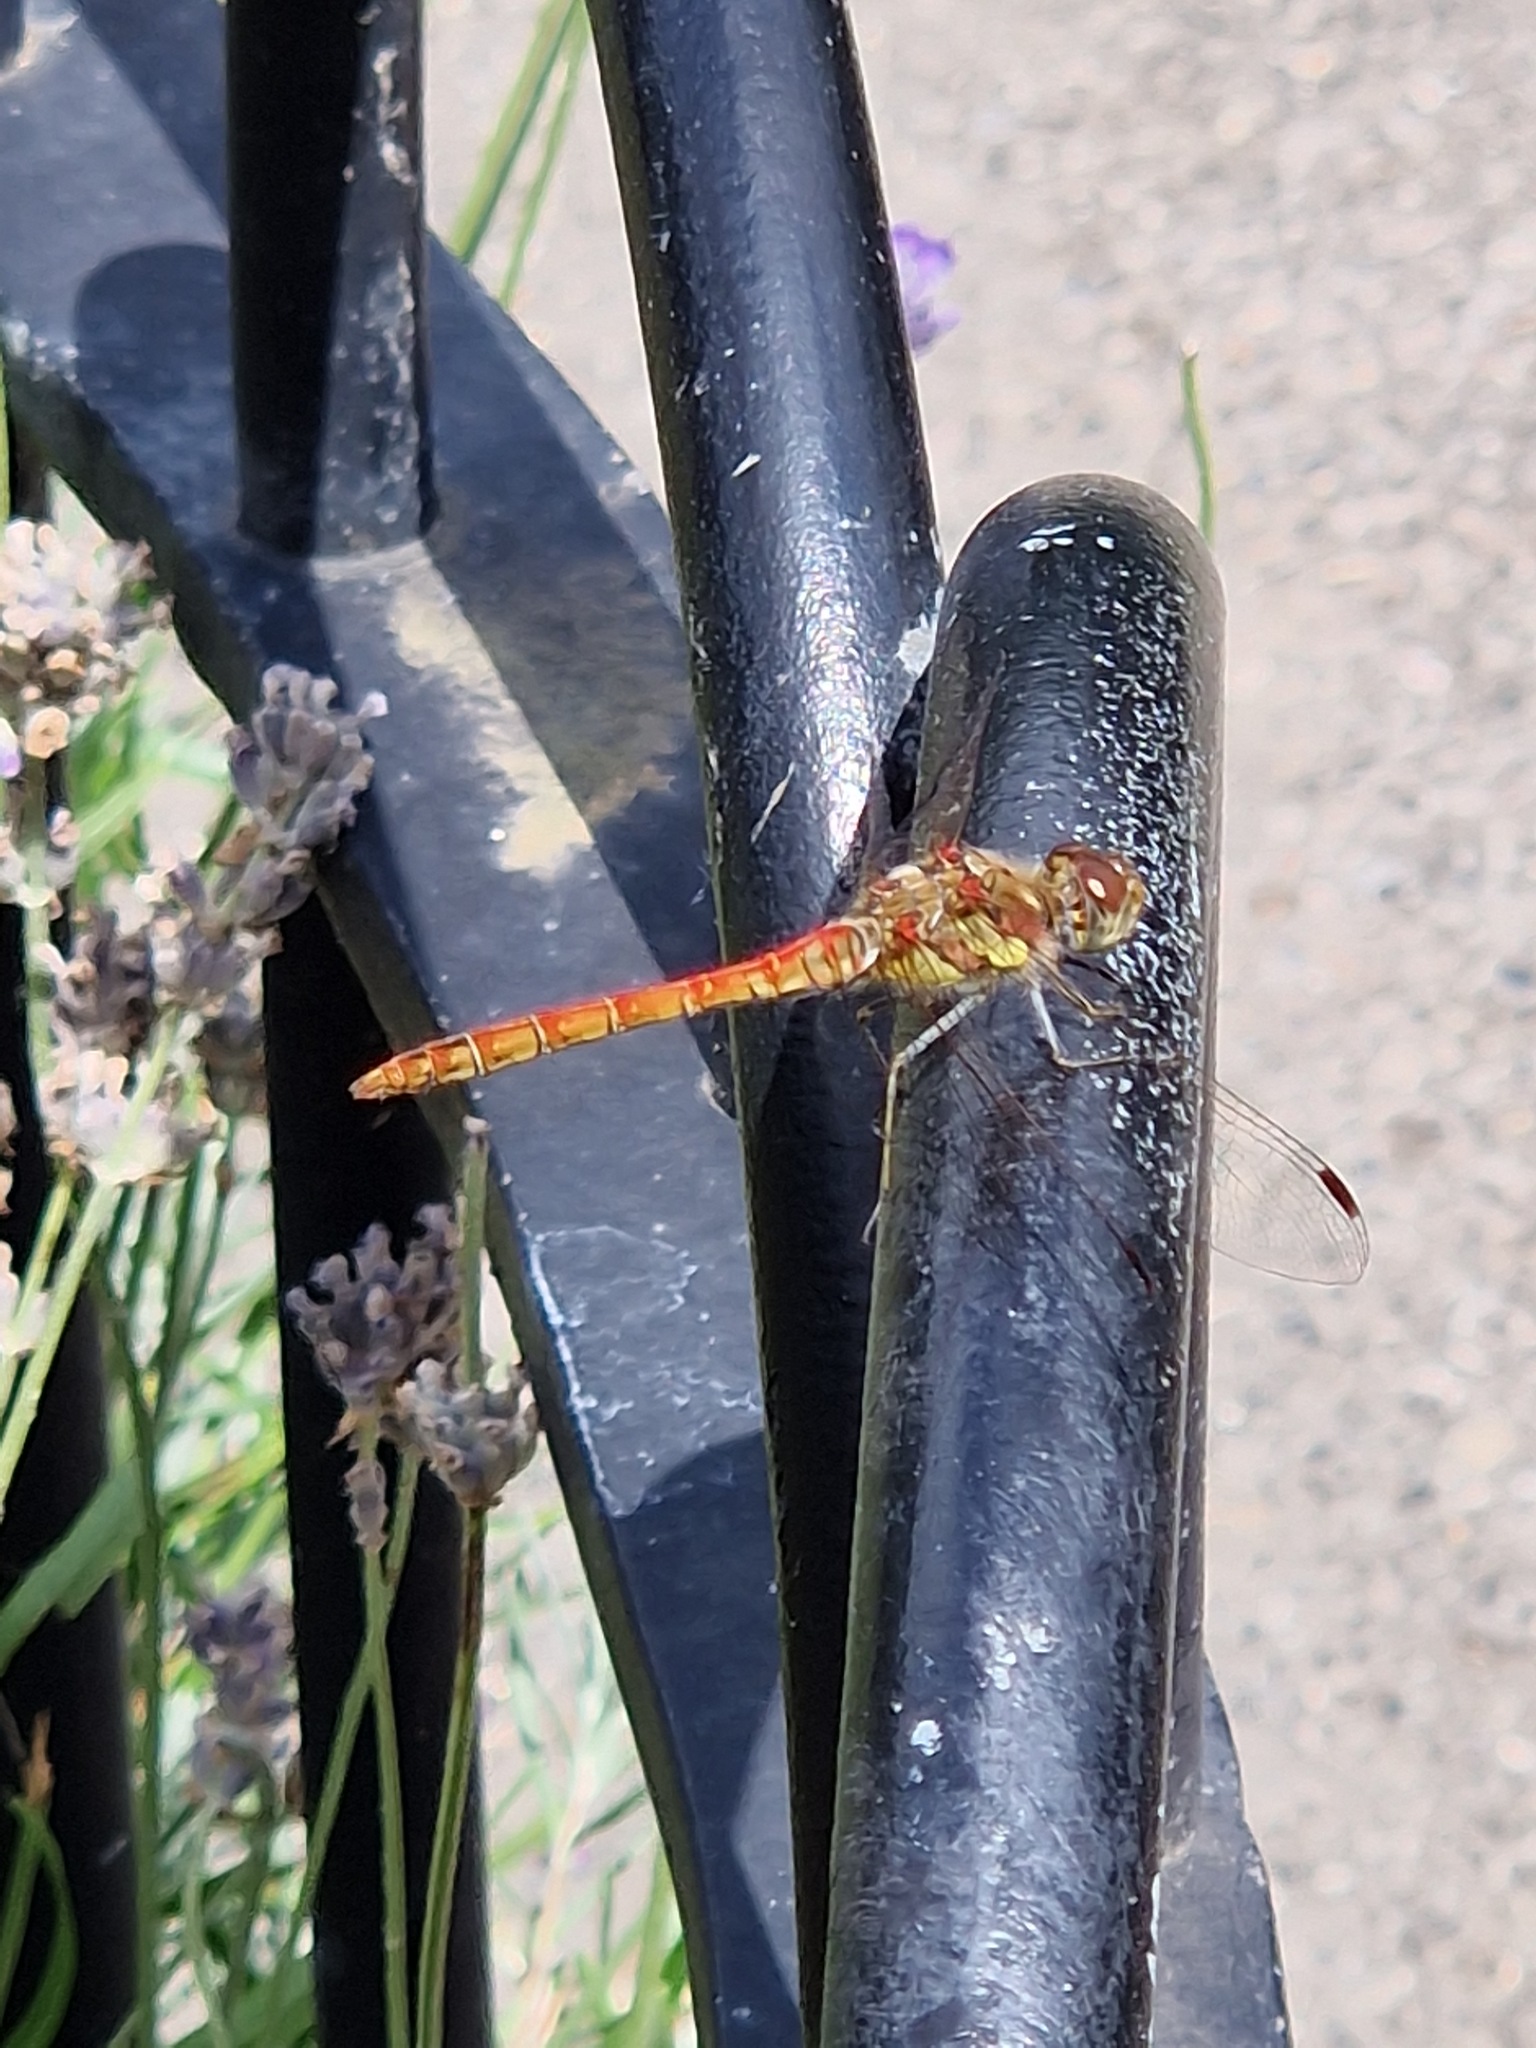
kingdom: Animalia
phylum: Arthropoda
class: Insecta
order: Odonata
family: Libellulidae
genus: Sympetrum
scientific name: Sympetrum striolatum
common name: Common darter
